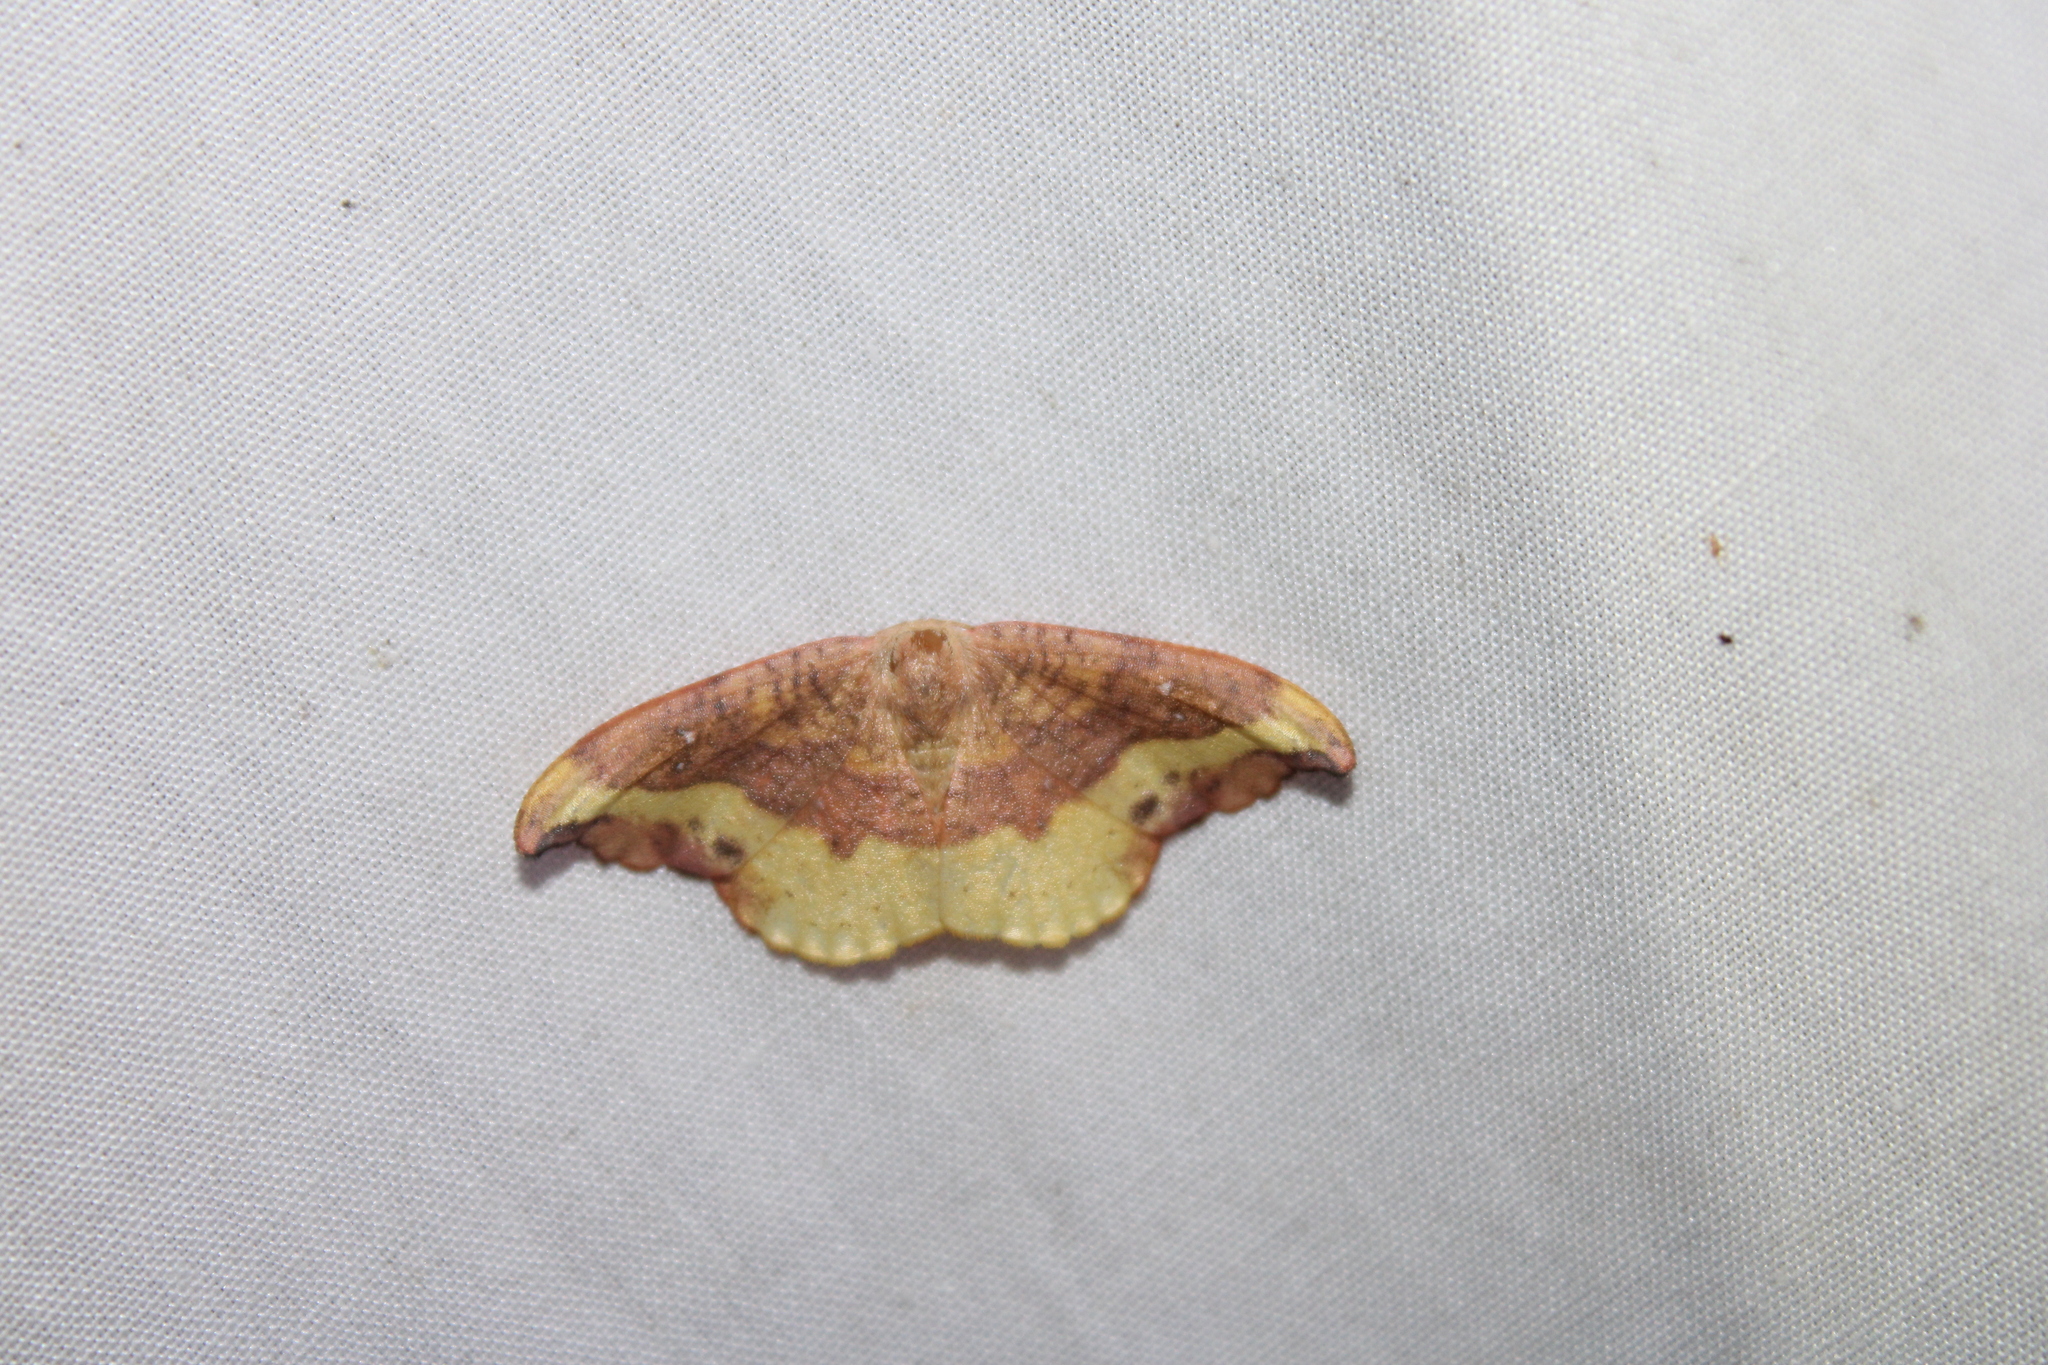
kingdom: Animalia
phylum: Arthropoda
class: Insecta
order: Lepidoptera
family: Drepanidae
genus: Oreta
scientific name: Oreta rosea
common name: Rose hooktip
